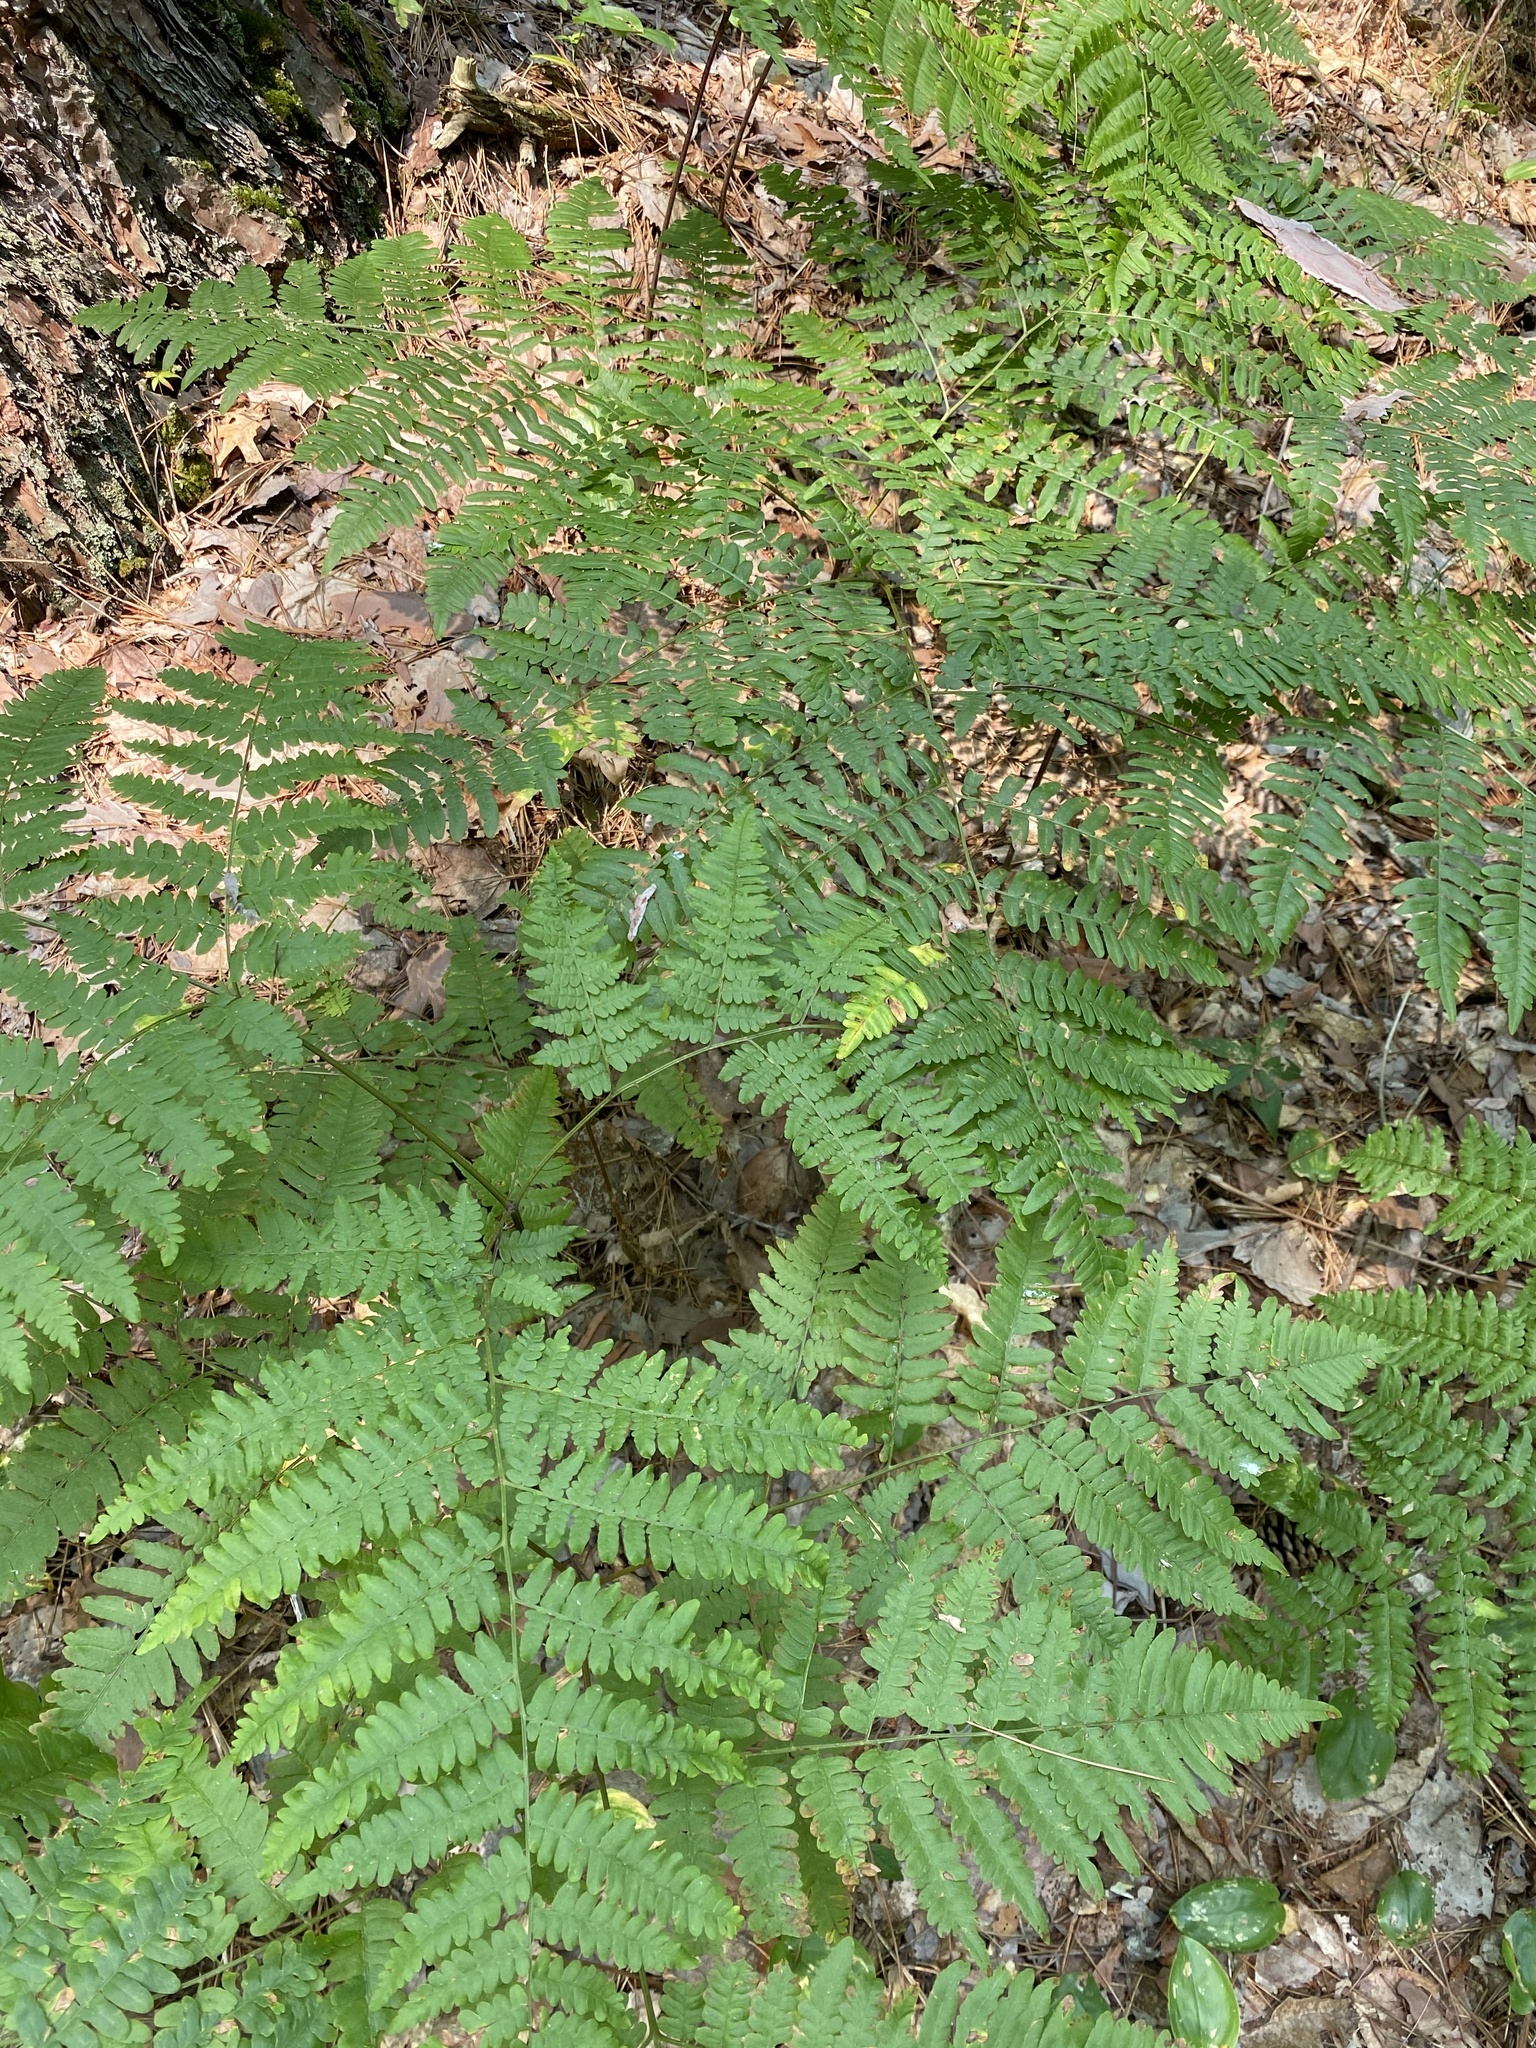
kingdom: Plantae
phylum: Tracheophyta
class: Polypodiopsida
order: Polypodiales
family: Dennstaedtiaceae
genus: Pteridium
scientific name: Pteridium aquilinum
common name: Bracken
